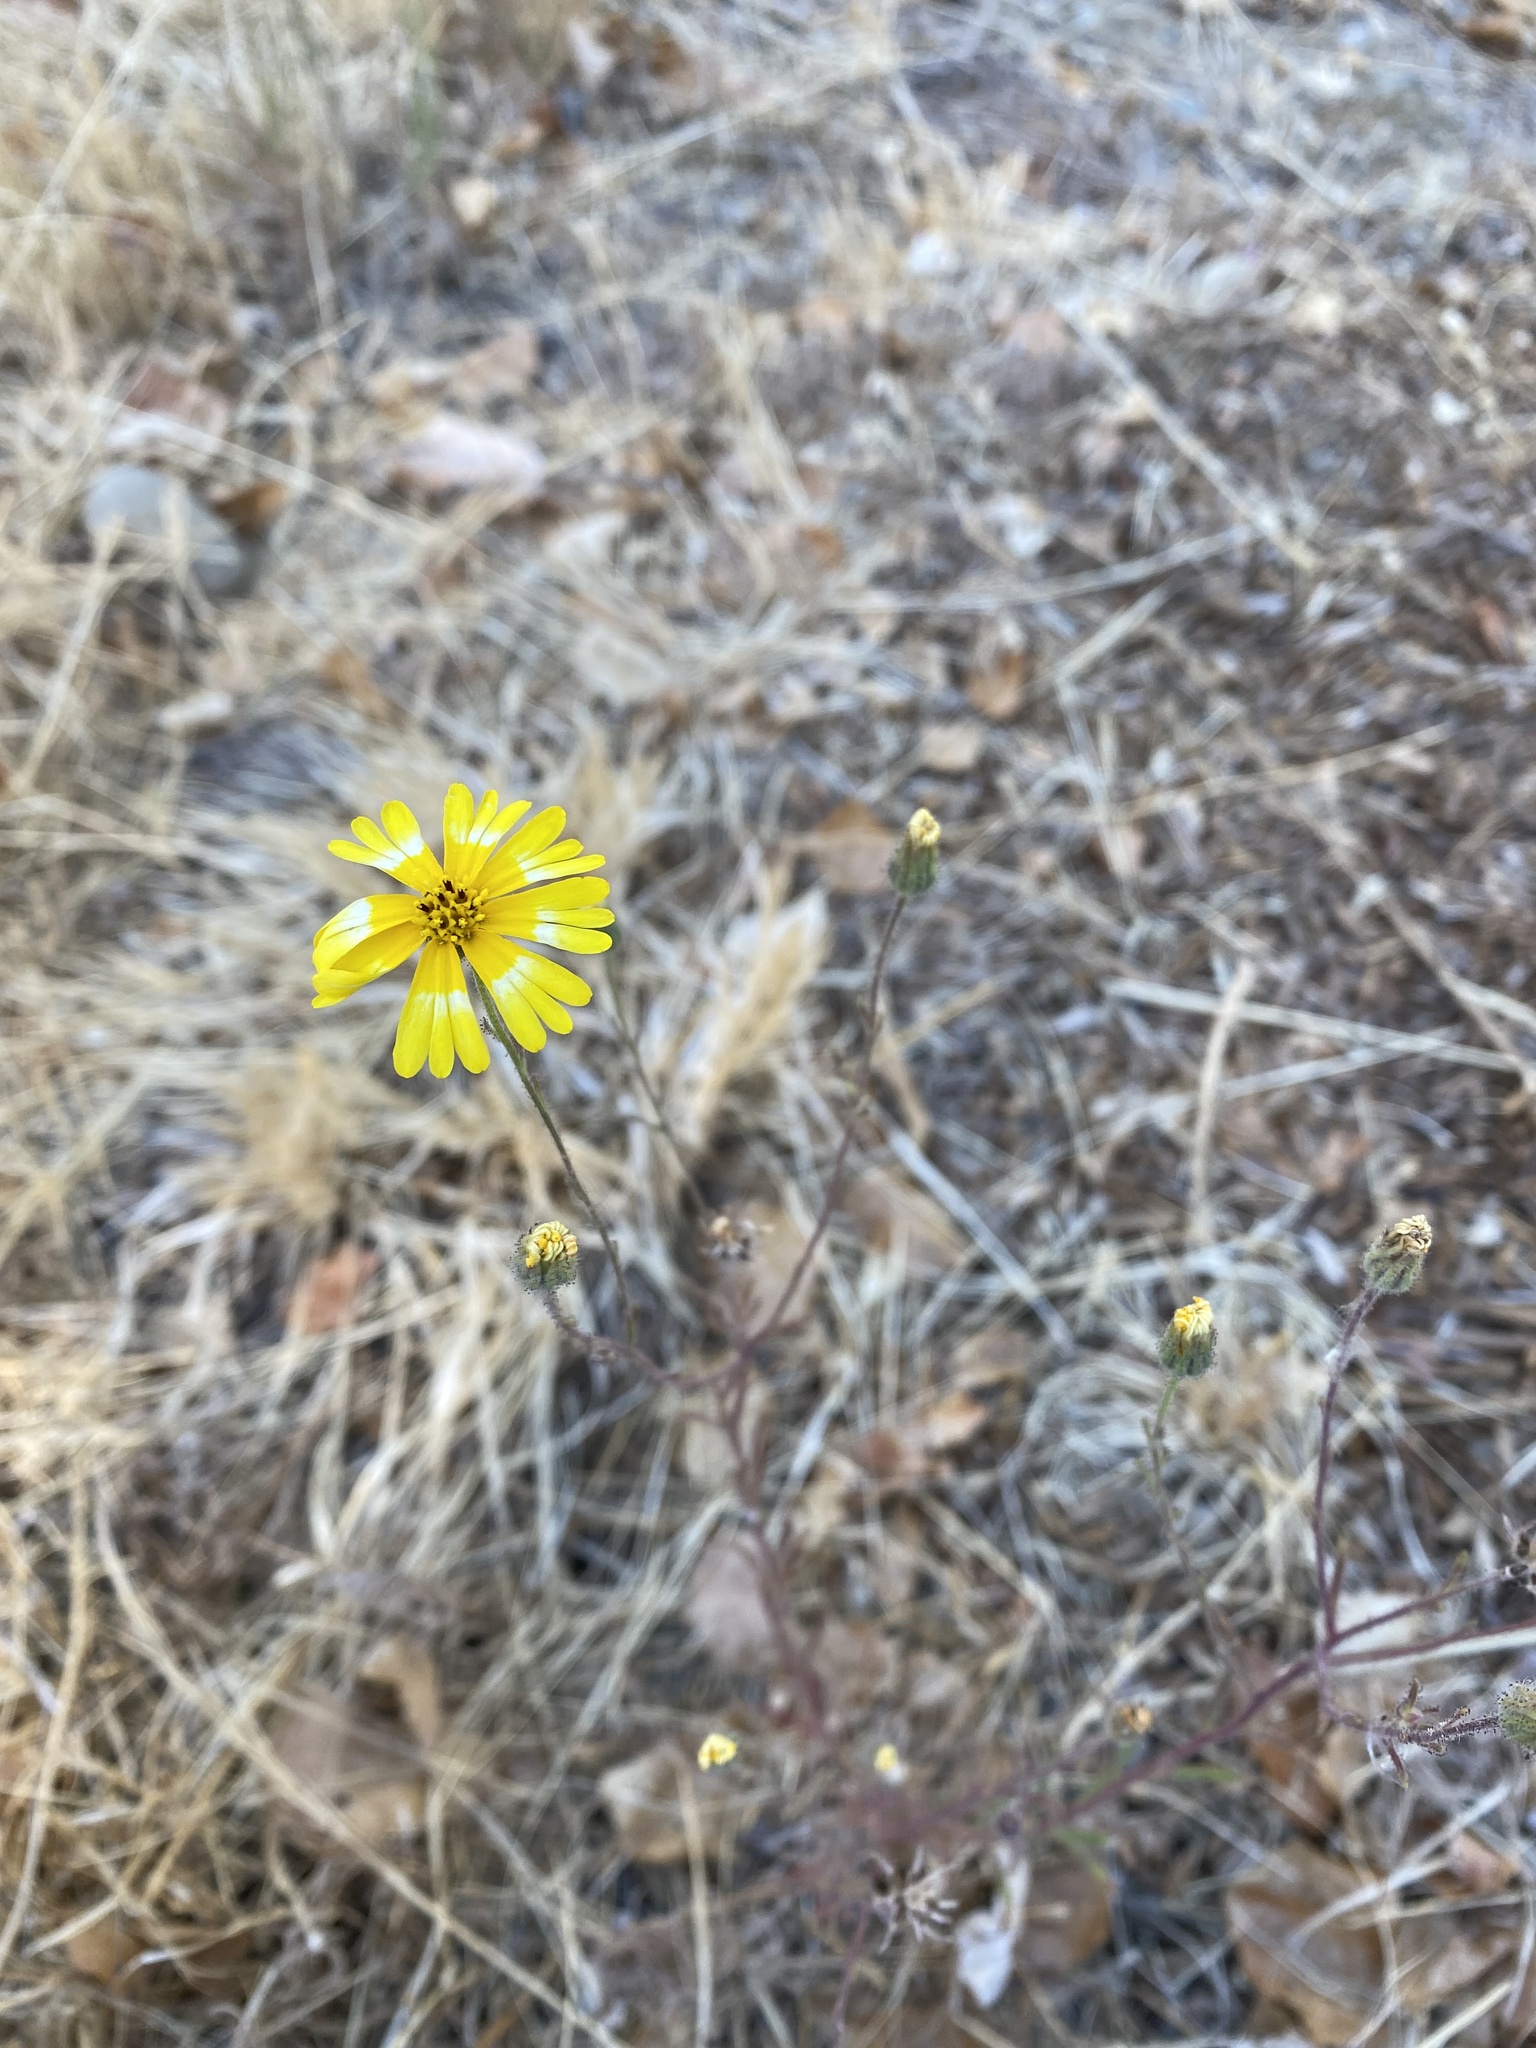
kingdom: Plantae
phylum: Tracheophyta
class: Magnoliopsida
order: Asterales
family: Asteraceae
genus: Madia
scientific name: Madia elegans
